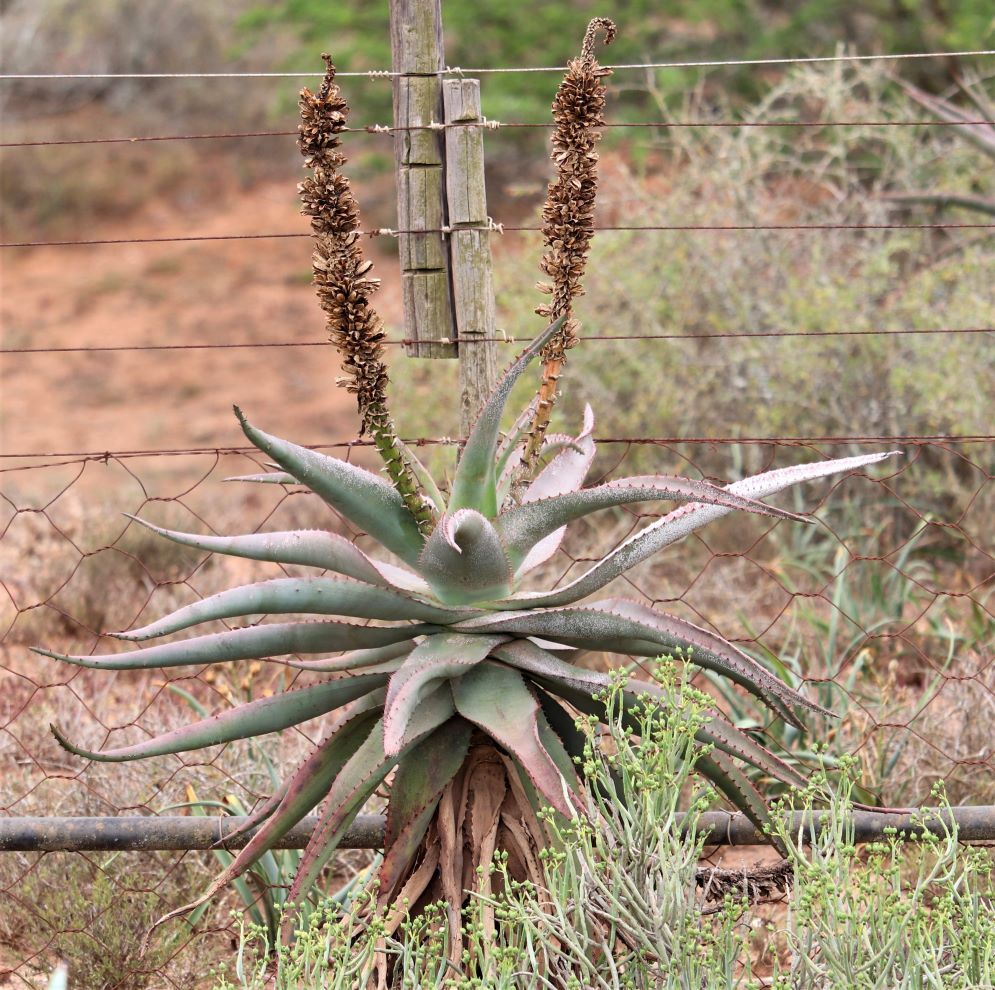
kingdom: Plantae
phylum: Tracheophyta
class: Liliopsida
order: Asparagales
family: Asphodelaceae
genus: Aloe
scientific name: Aloe africana
